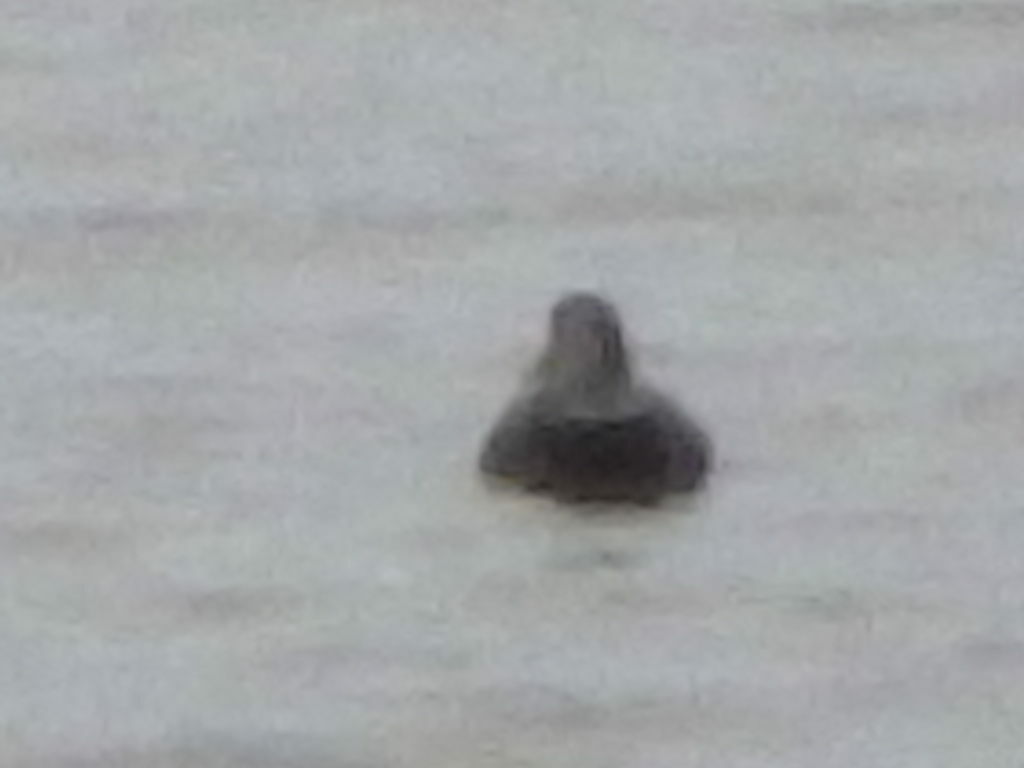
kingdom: Animalia
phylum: Chordata
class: Aves
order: Anseriformes
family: Anatidae
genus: Anas
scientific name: Anas rubripes
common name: American black duck
